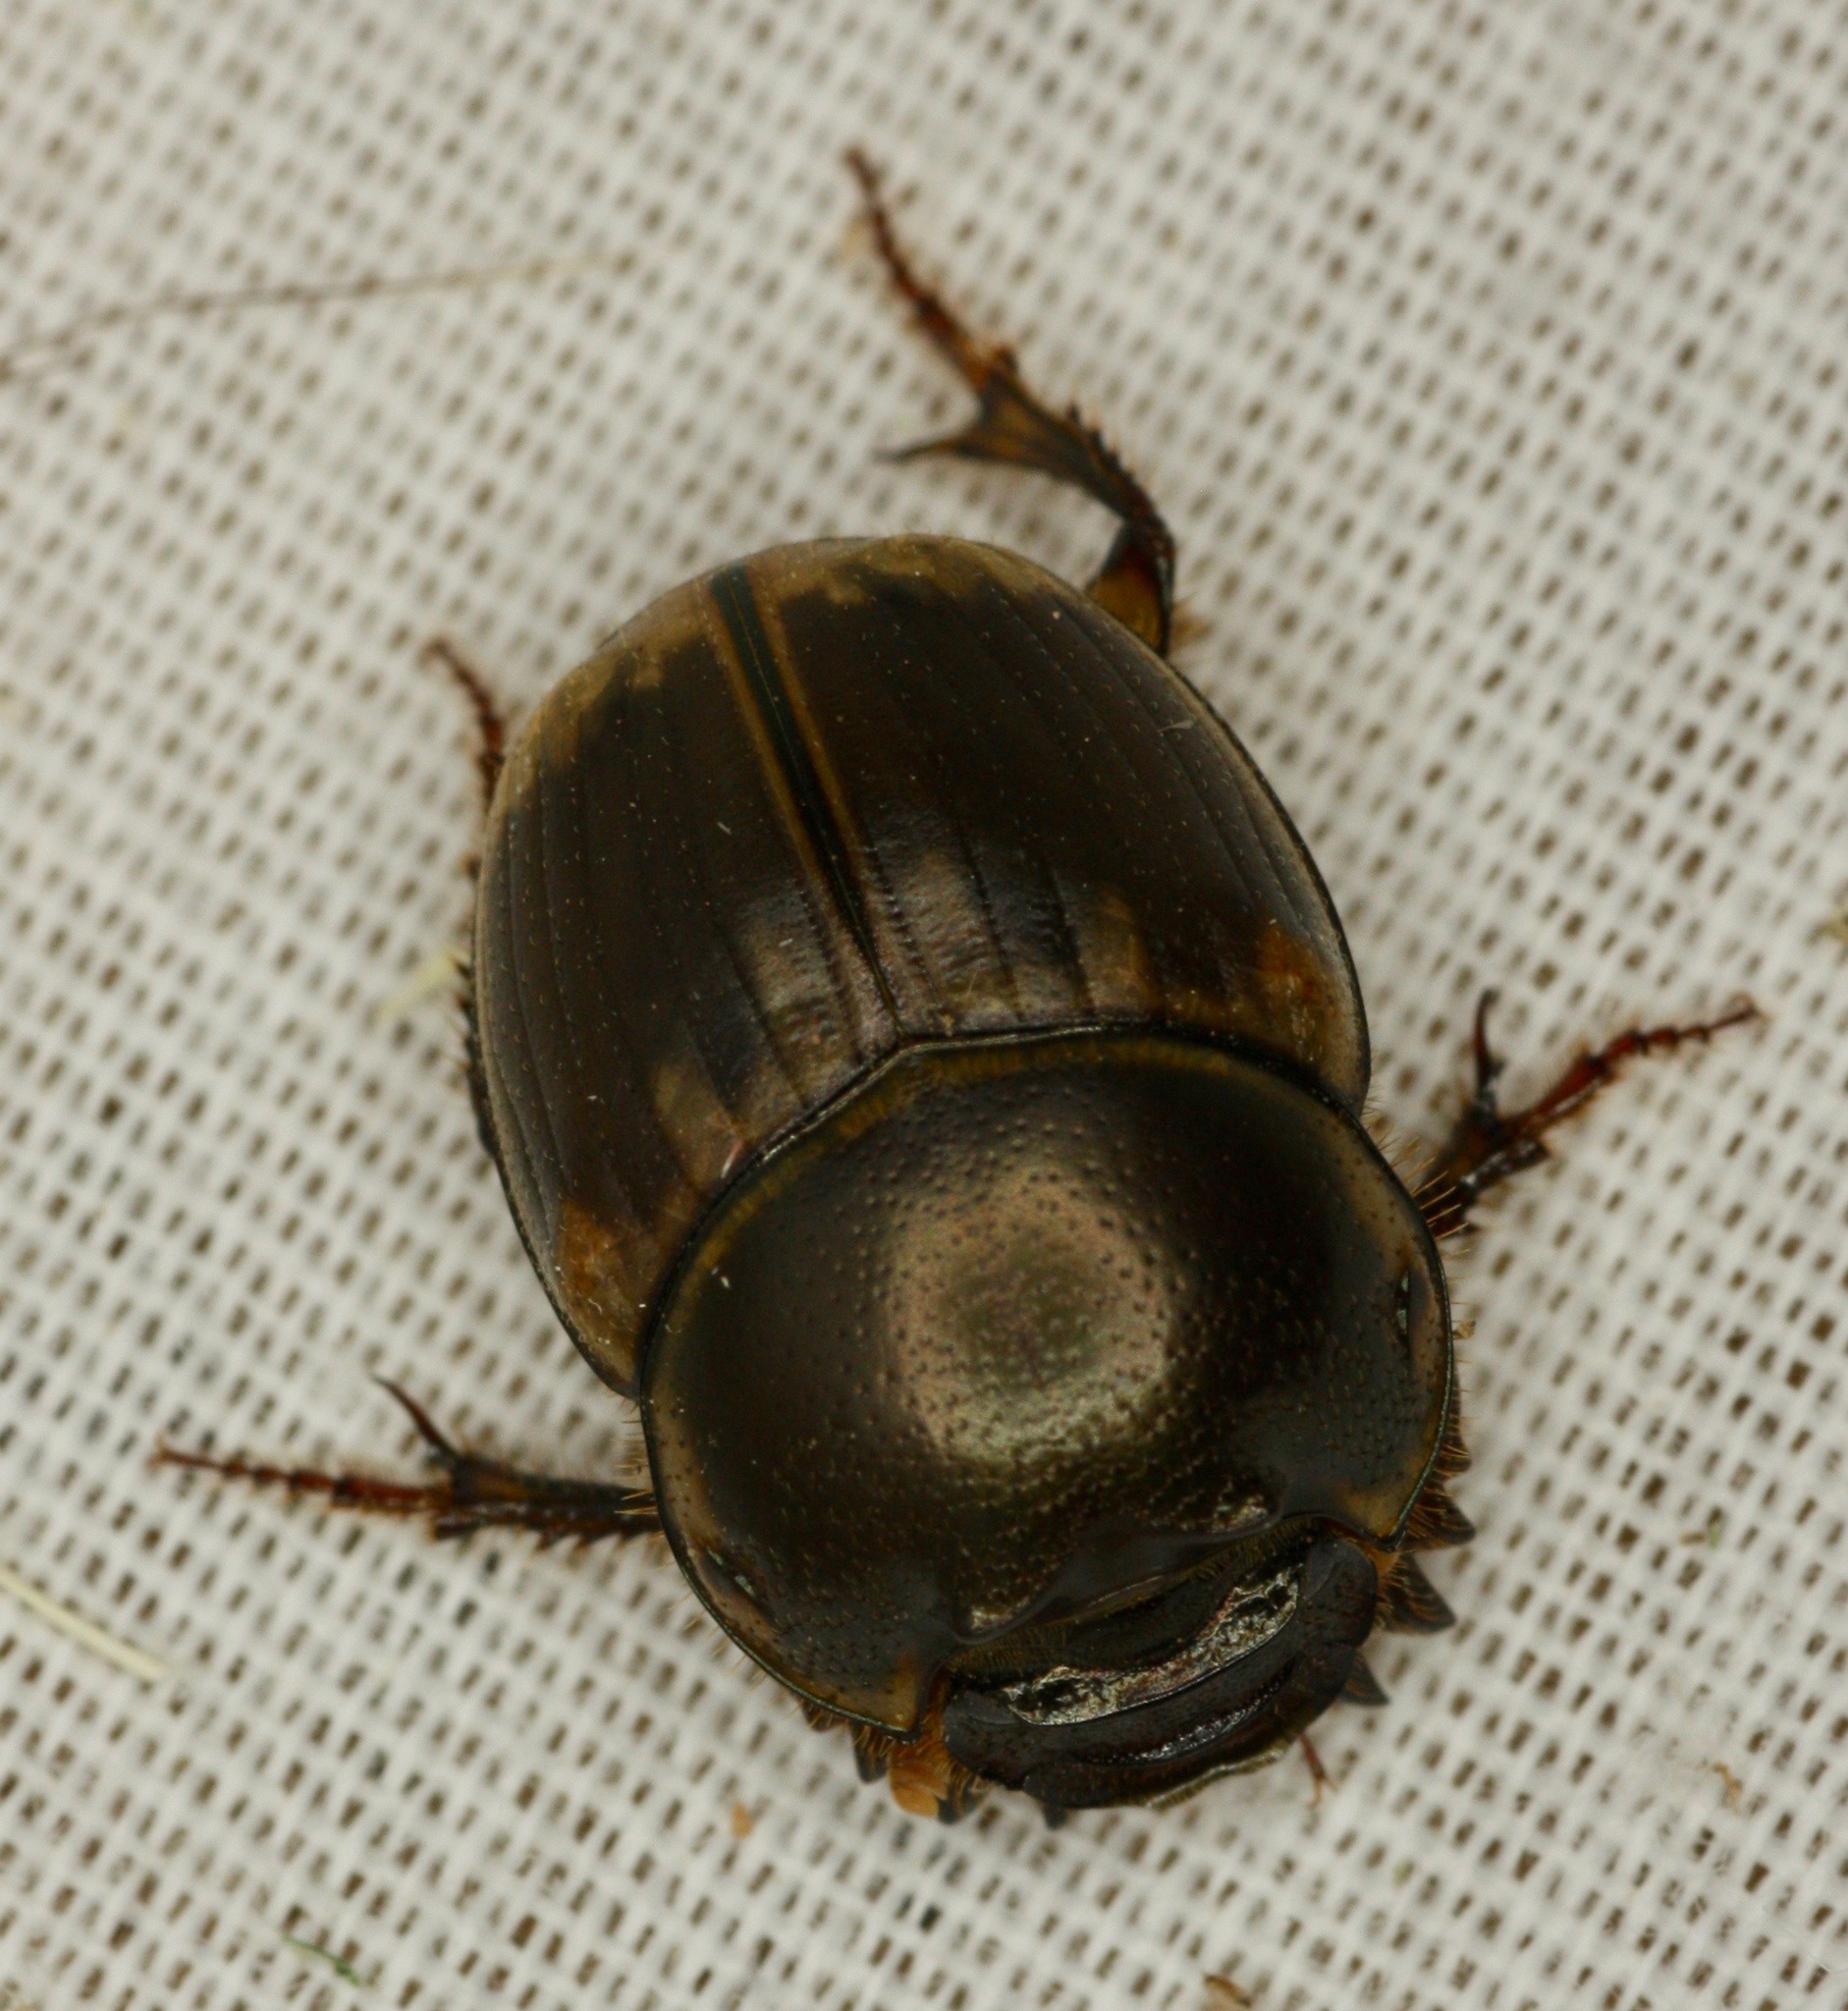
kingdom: Animalia
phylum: Arthropoda
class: Insecta
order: Coleoptera
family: Scarabaeidae
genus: Digitonthophagus
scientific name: Digitonthophagus gazella
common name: Brown dung beetle
